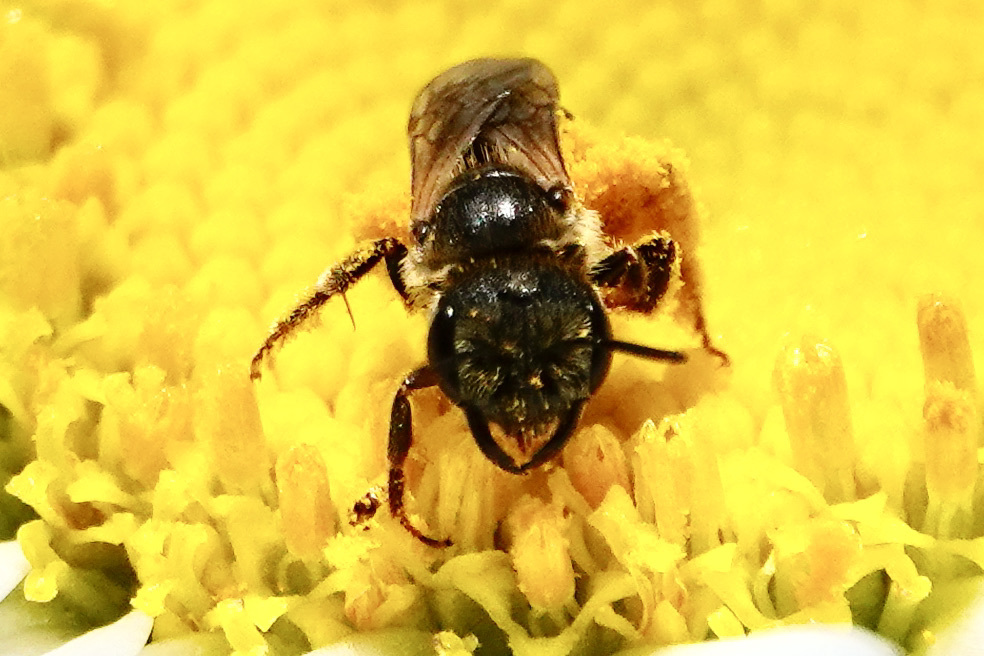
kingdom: Animalia
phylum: Arthropoda
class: Insecta
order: Hymenoptera
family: Halictidae
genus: Halictus
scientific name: Halictus ligatus
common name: Ligated furrow bee
